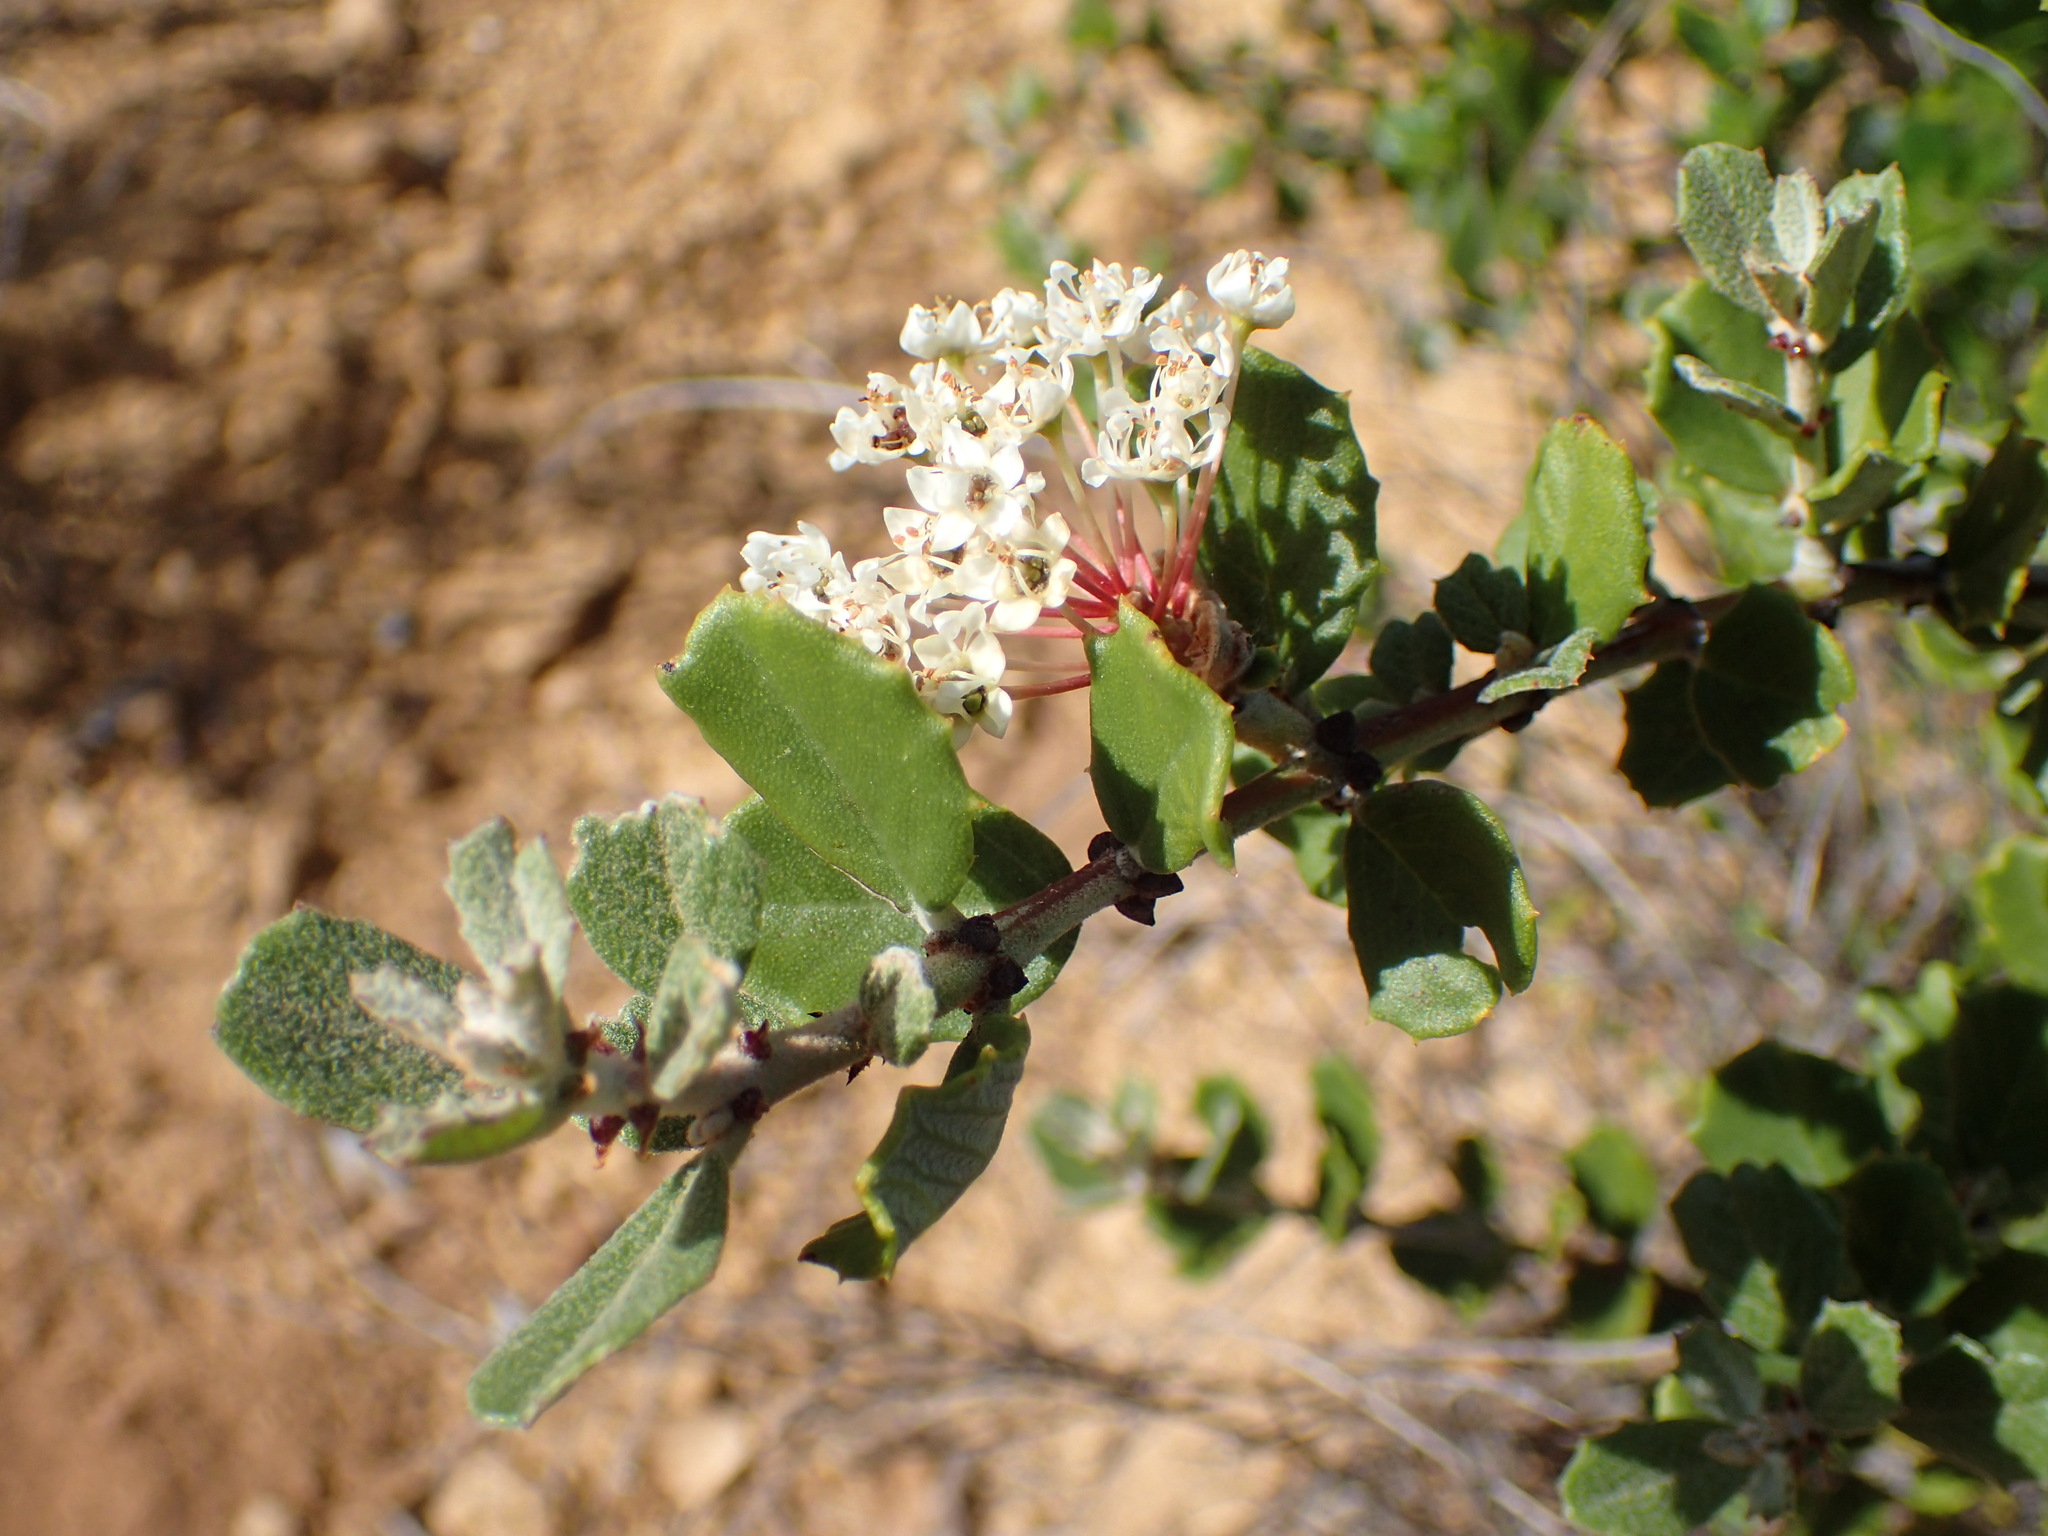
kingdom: Plantae
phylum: Tracheophyta
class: Magnoliopsida
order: Rosales
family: Rhamnaceae
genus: Ceanothus
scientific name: Ceanothus crassifolius
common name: Hoaryleaf ceanothus
